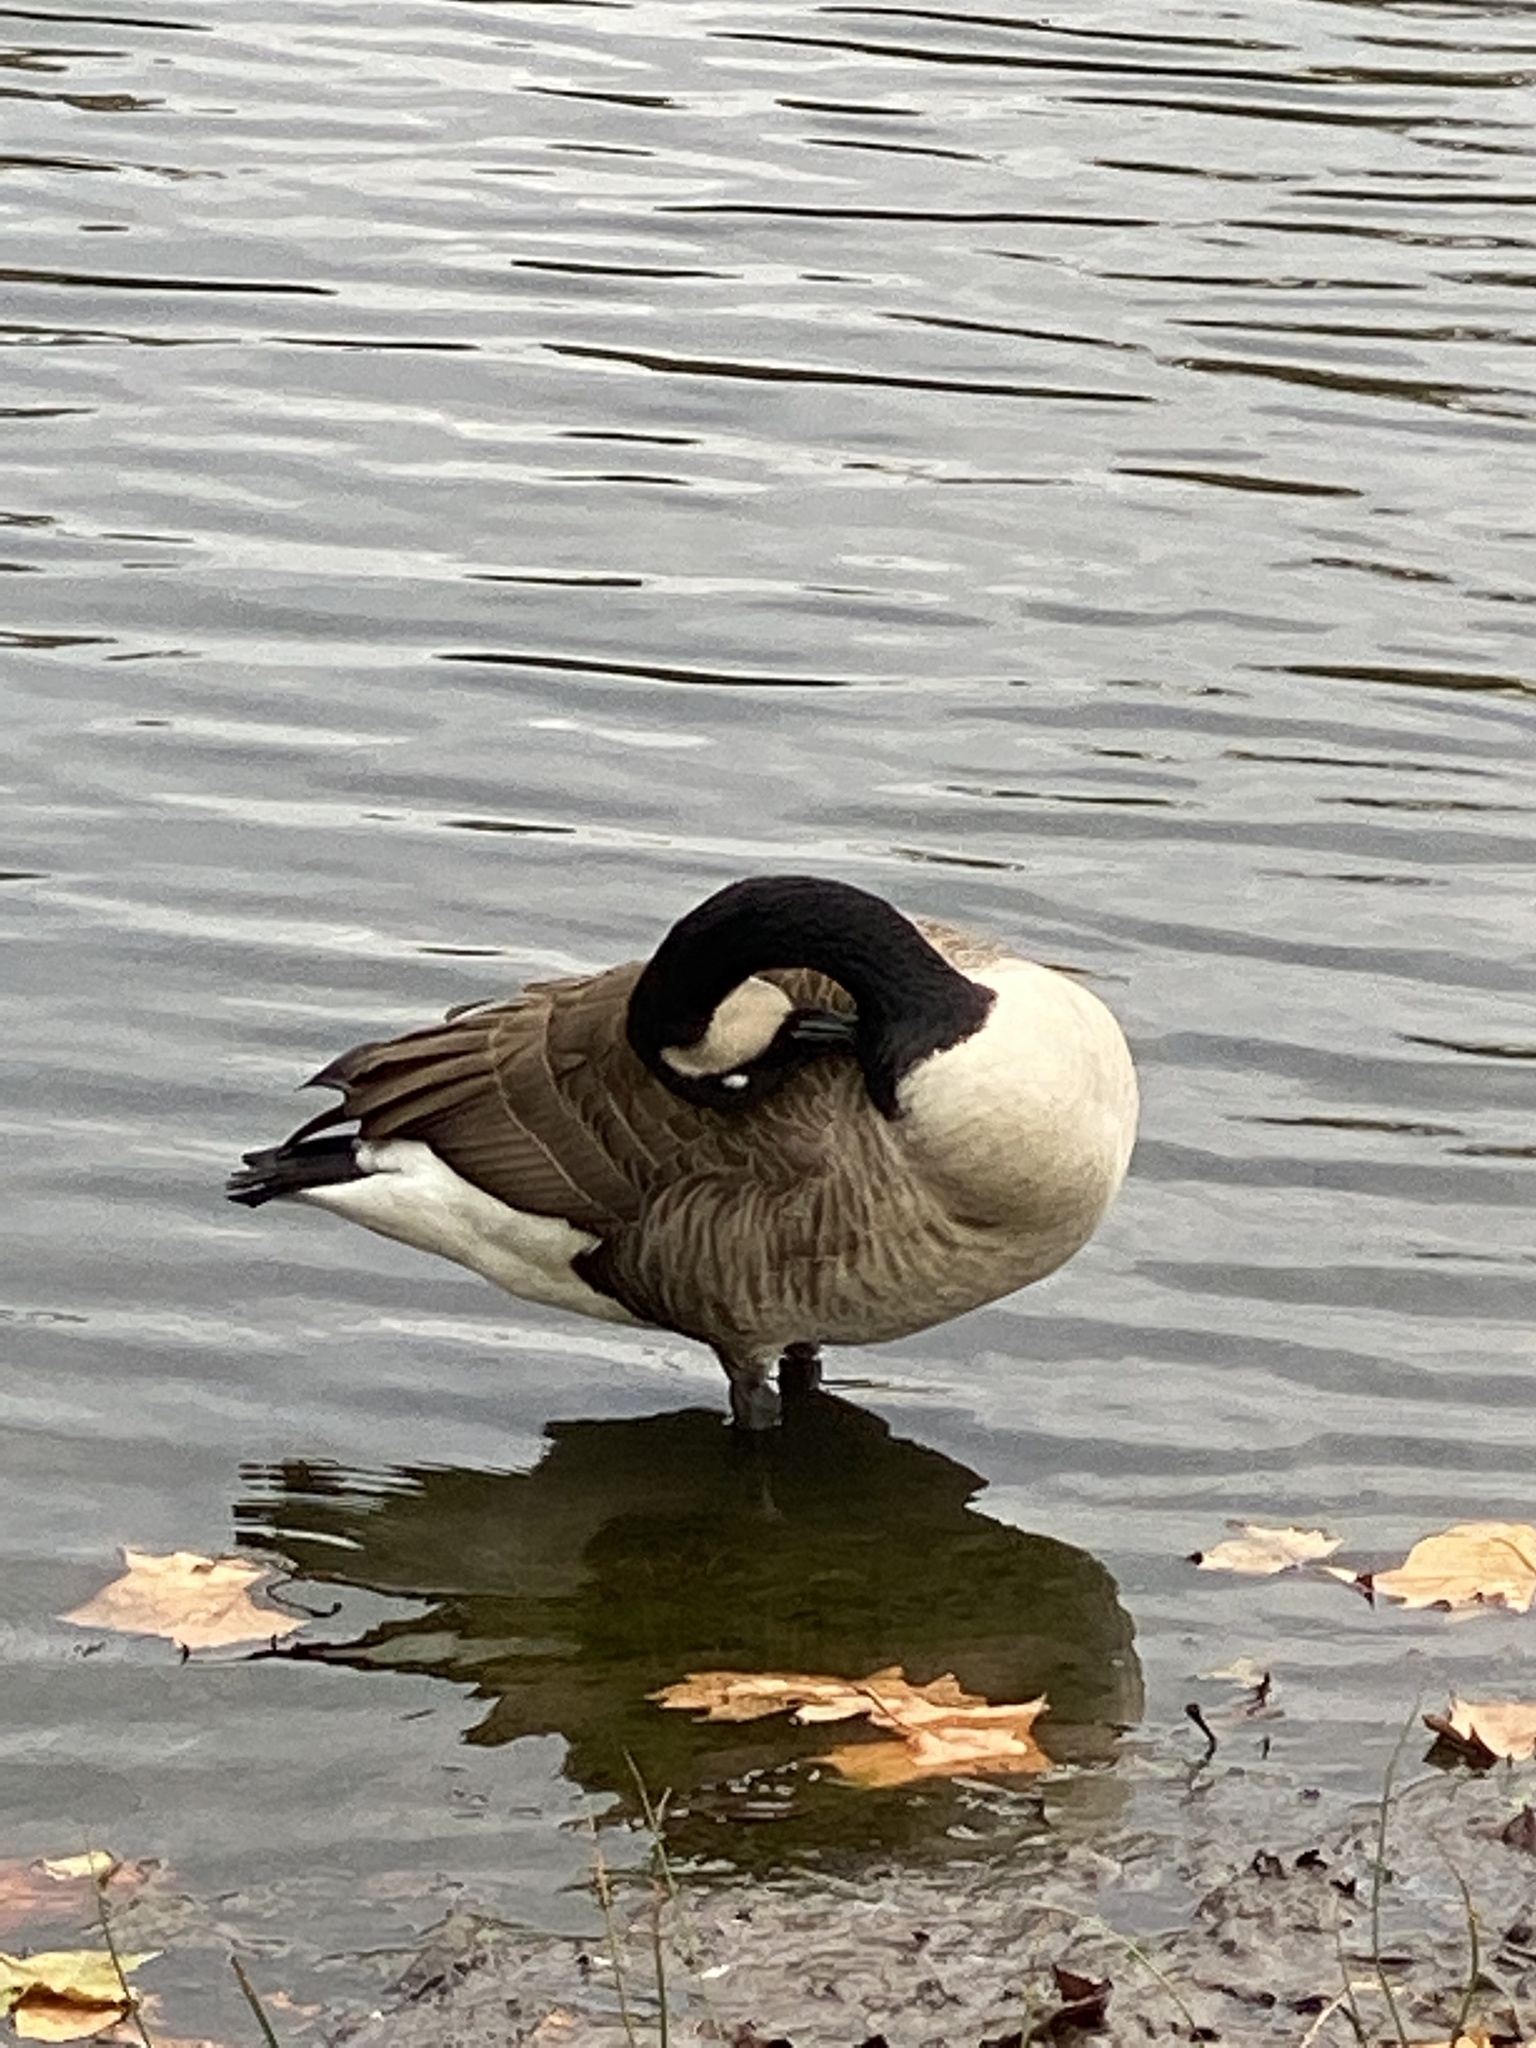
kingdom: Animalia
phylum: Chordata
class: Aves
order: Anseriformes
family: Anatidae
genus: Branta
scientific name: Branta canadensis
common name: Canada goose
